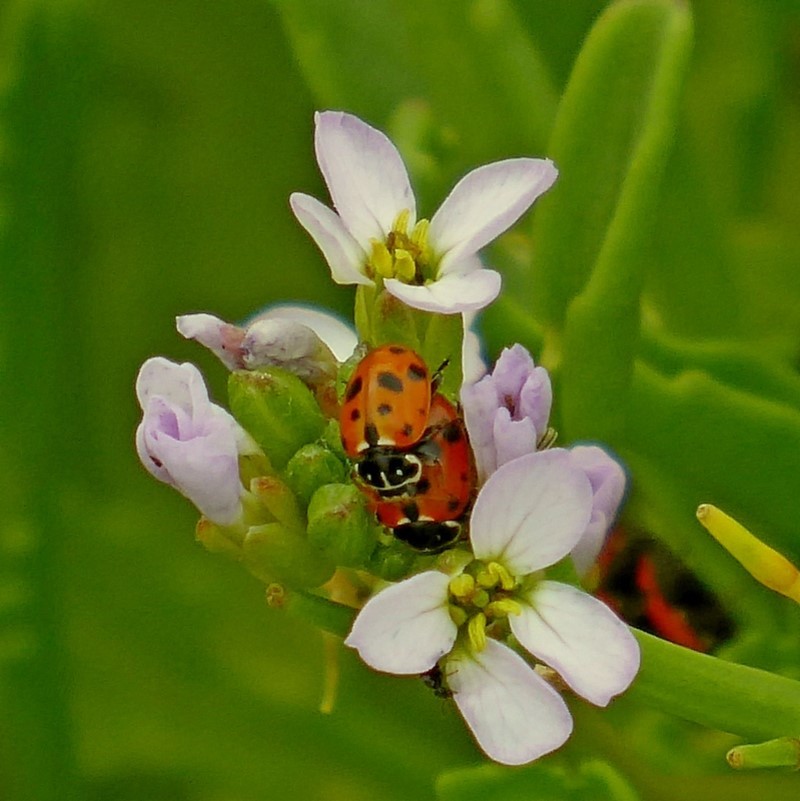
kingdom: Animalia
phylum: Arthropoda
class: Insecta
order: Coleoptera
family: Coccinellidae
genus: Hippodamia
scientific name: Hippodamia variegata
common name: Ladybird beetle
